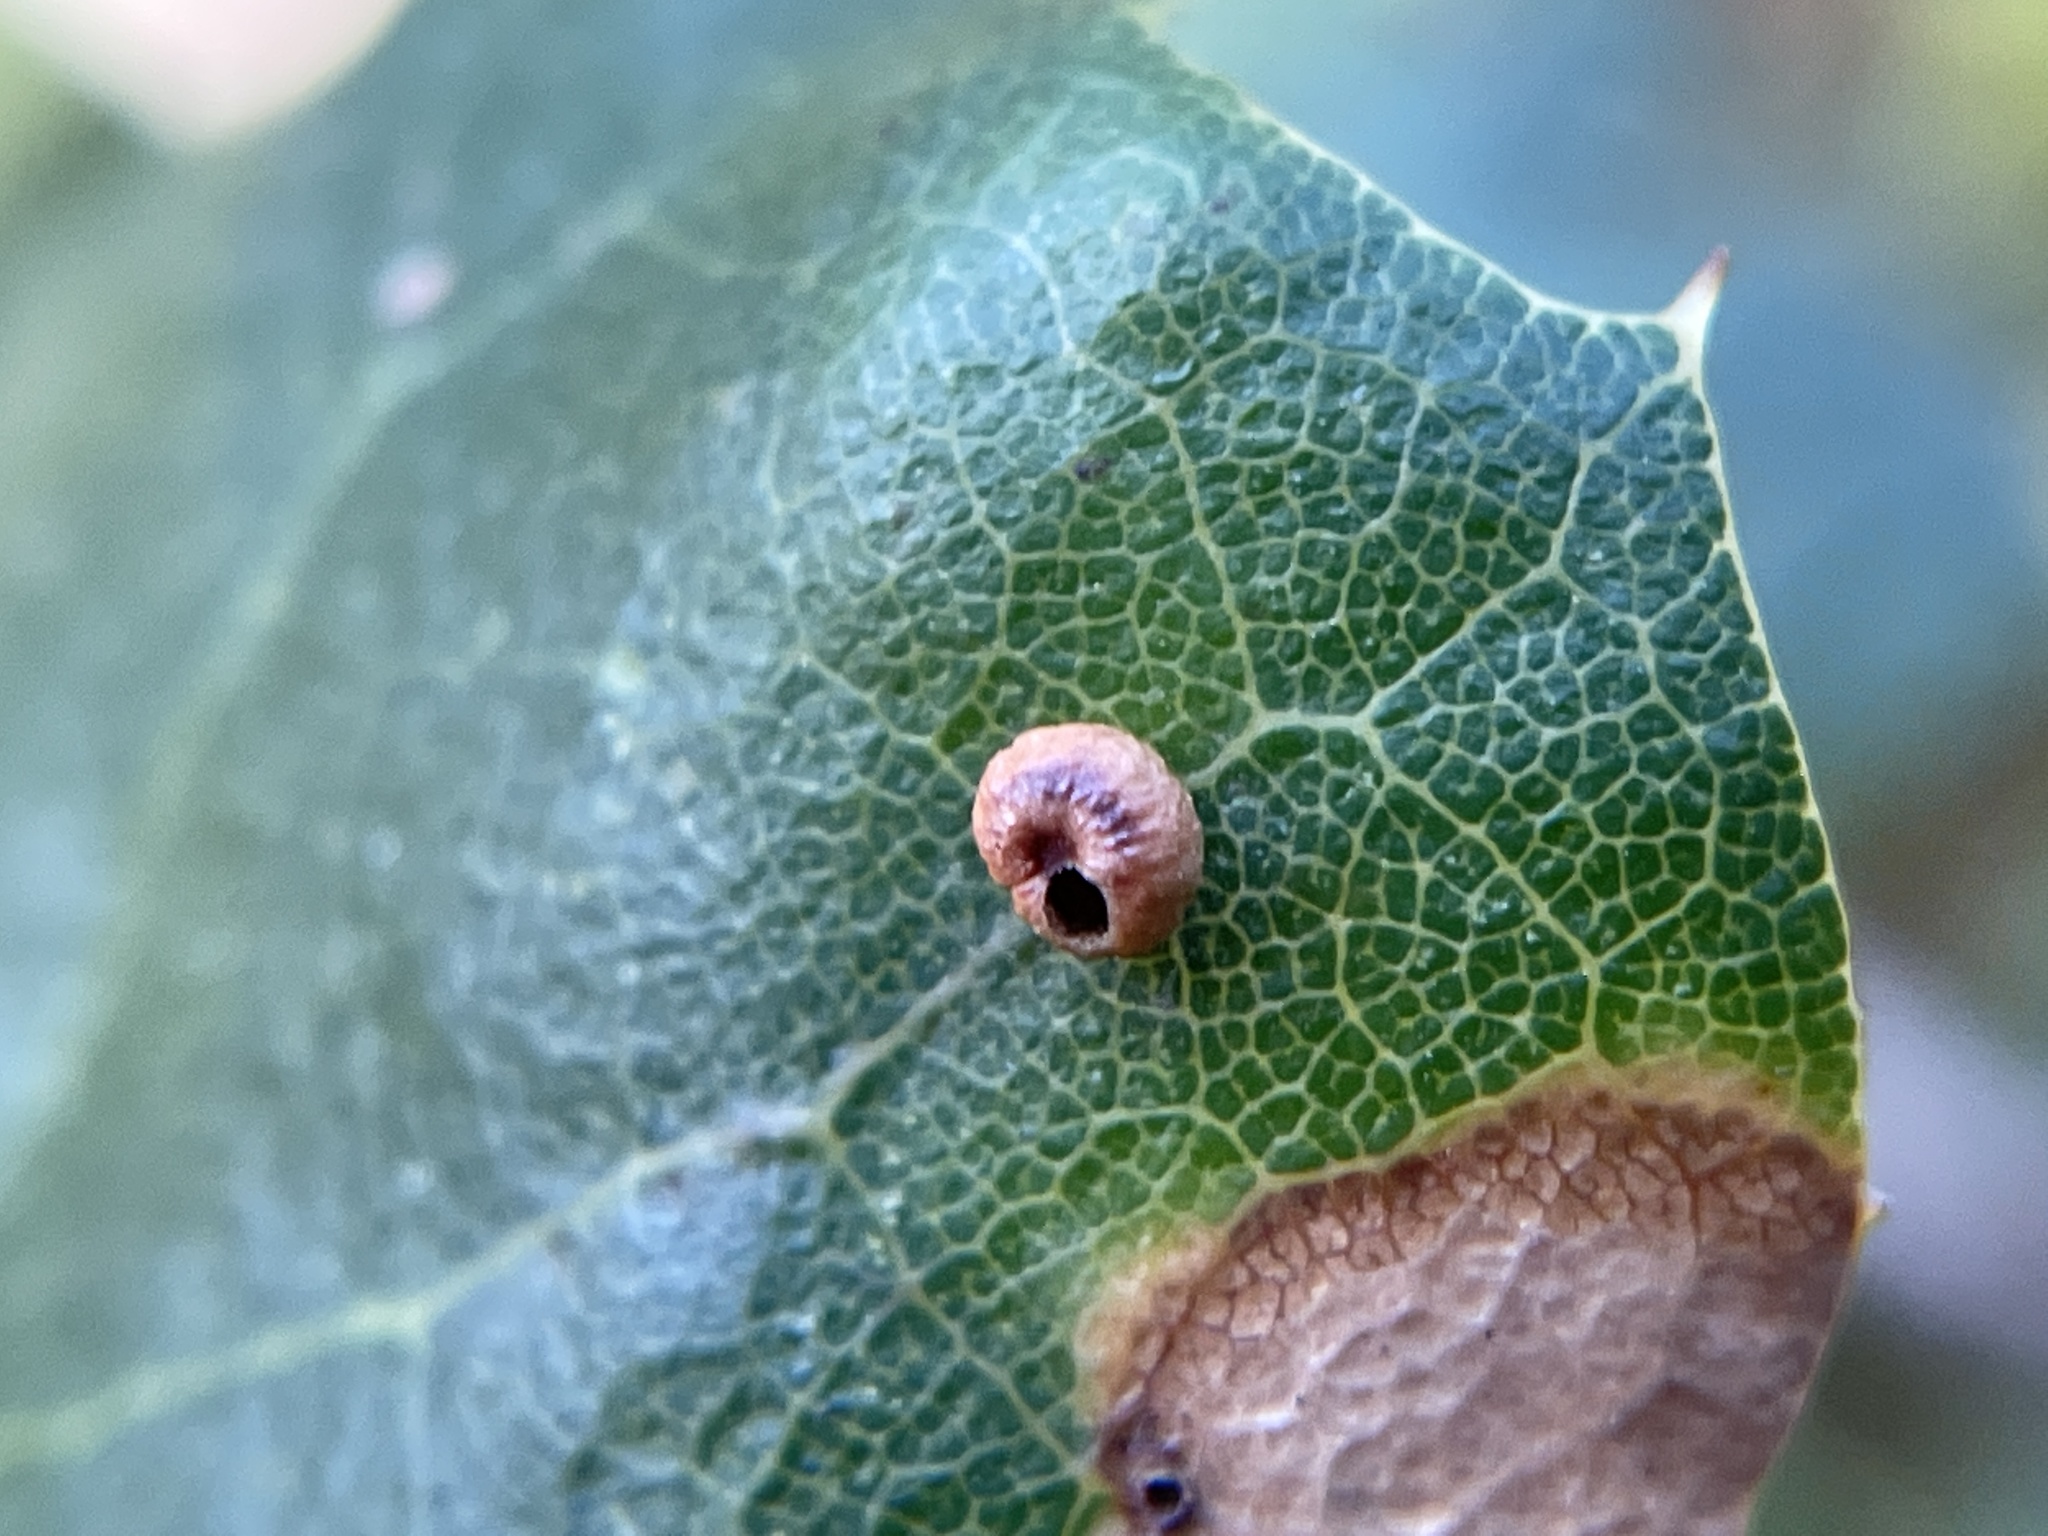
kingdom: Animalia
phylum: Arthropoda
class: Insecta
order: Hymenoptera
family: Cynipidae
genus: Dryocosmus
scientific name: Dryocosmus
